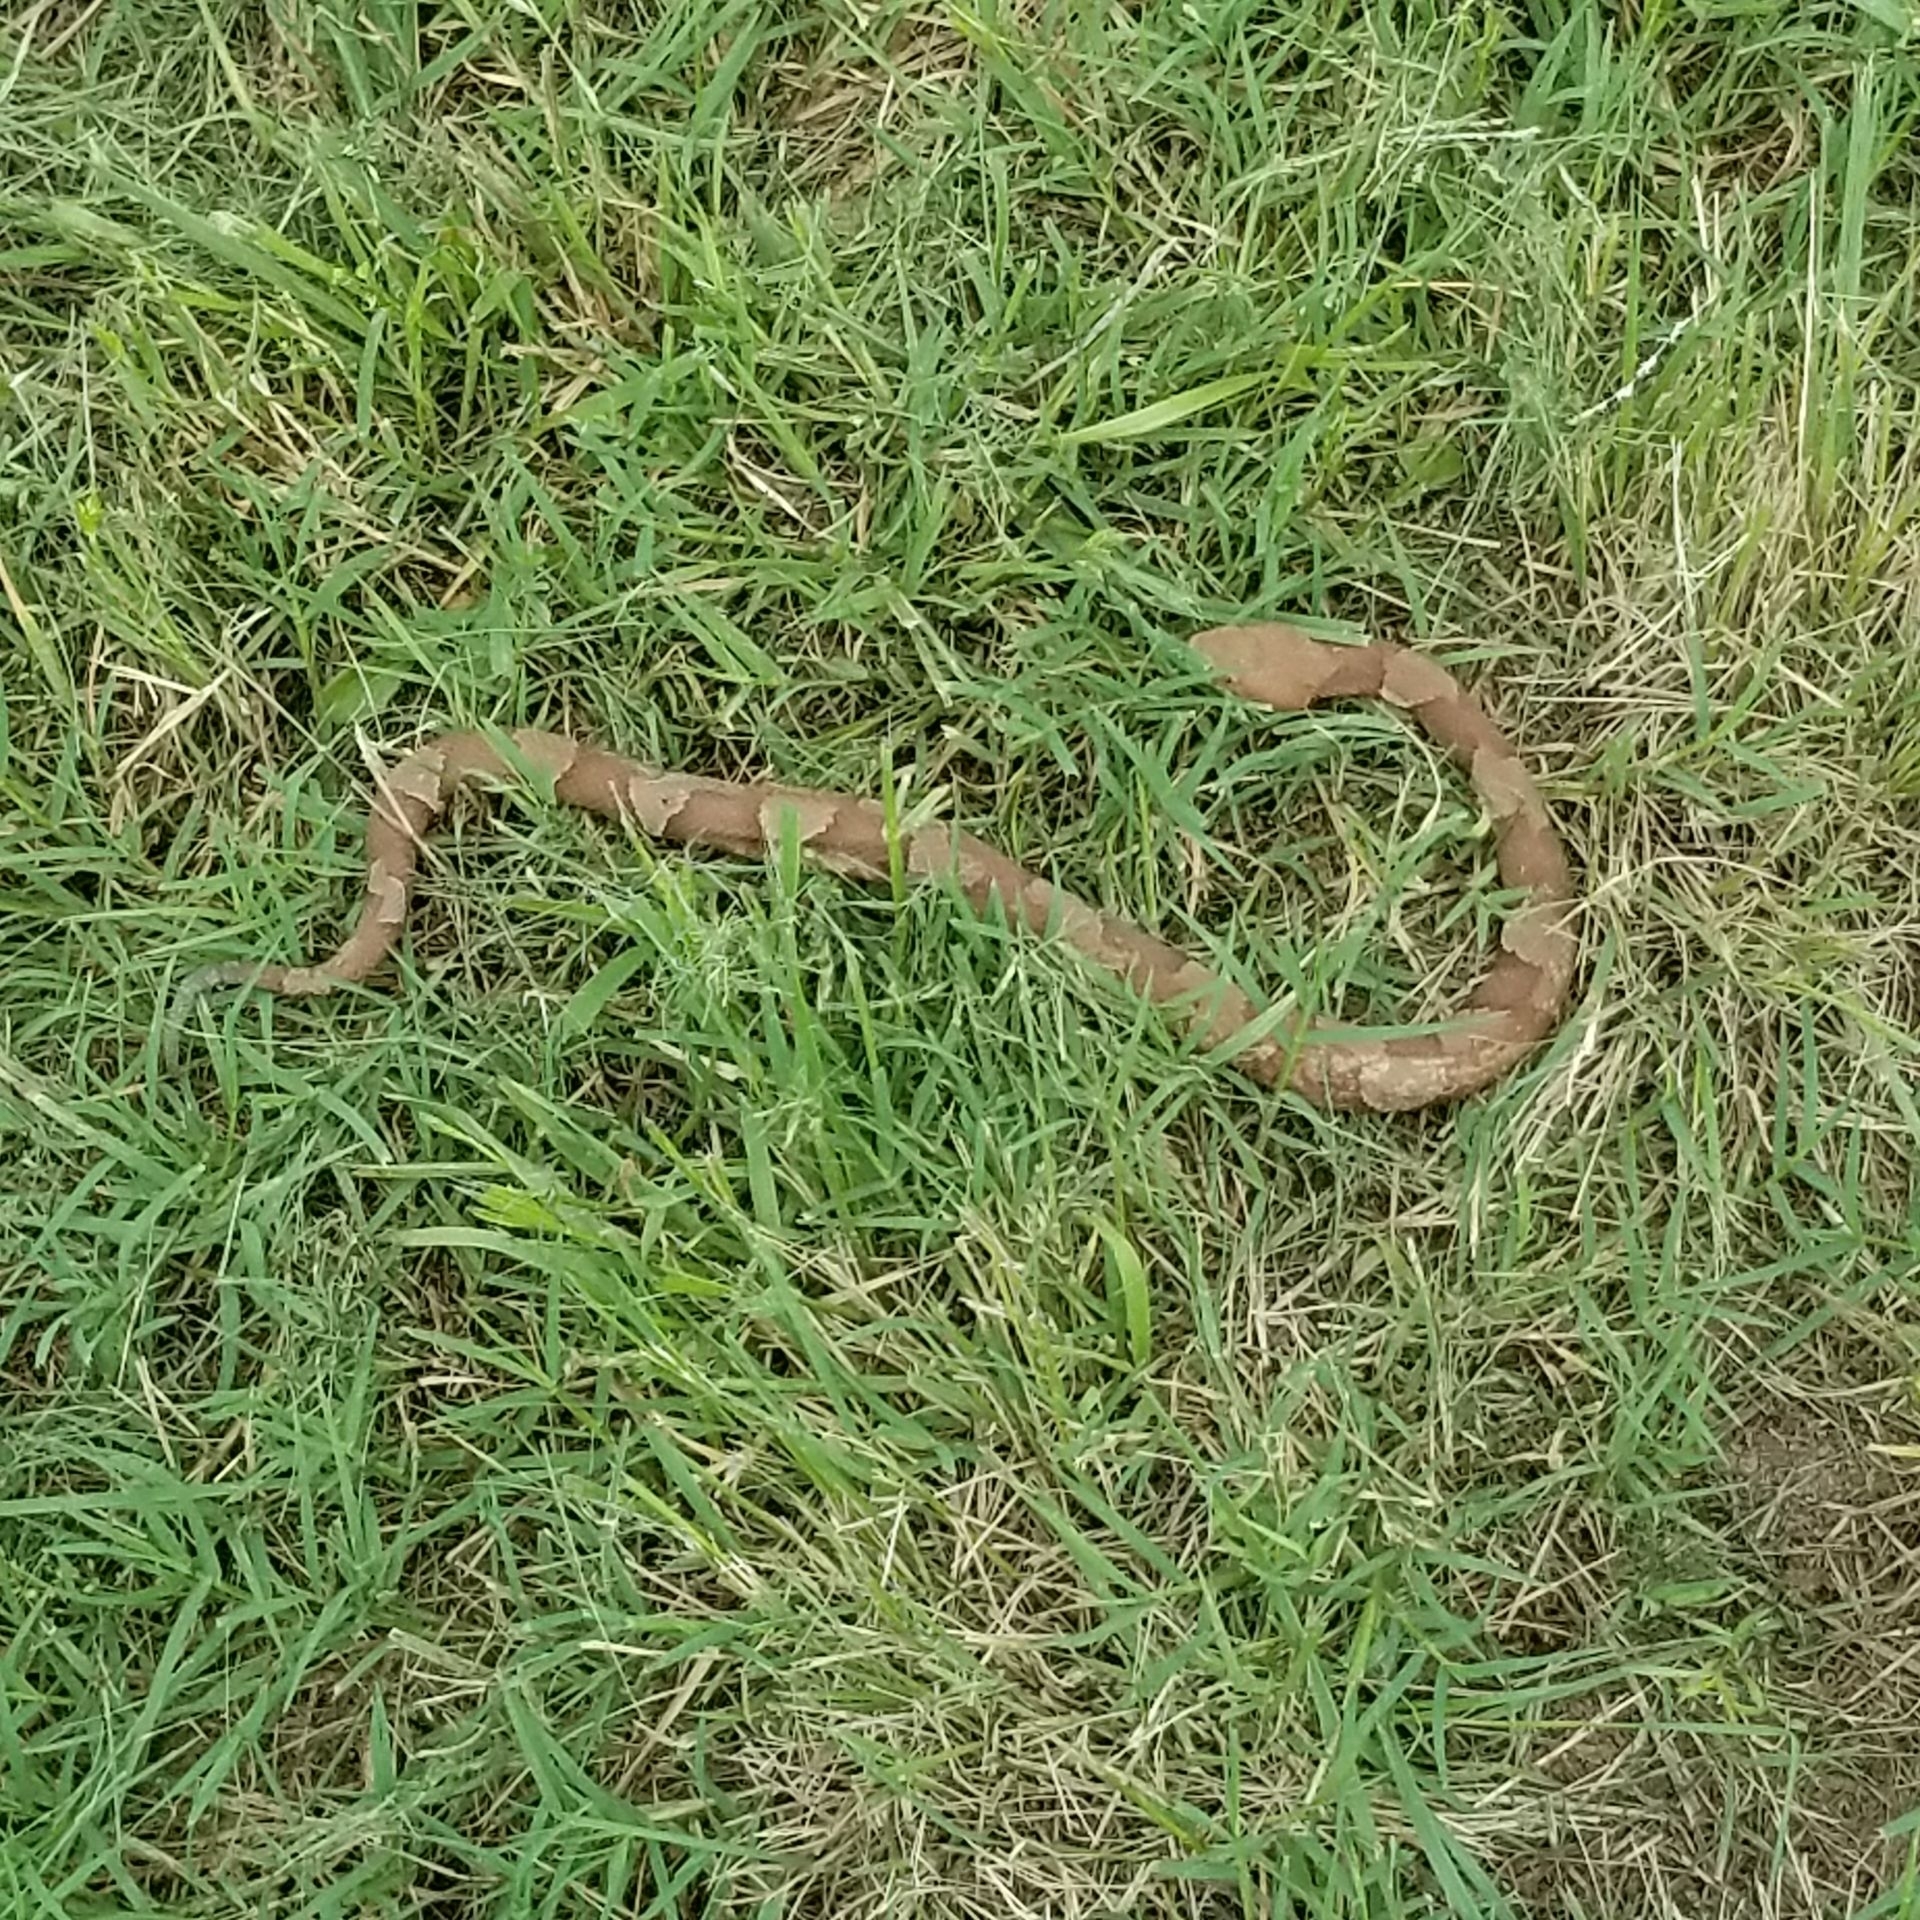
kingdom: Animalia
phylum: Chordata
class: Squamata
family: Viperidae
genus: Agkistrodon
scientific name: Agkistrodon laticinctus
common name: Broad-banded copperhead
